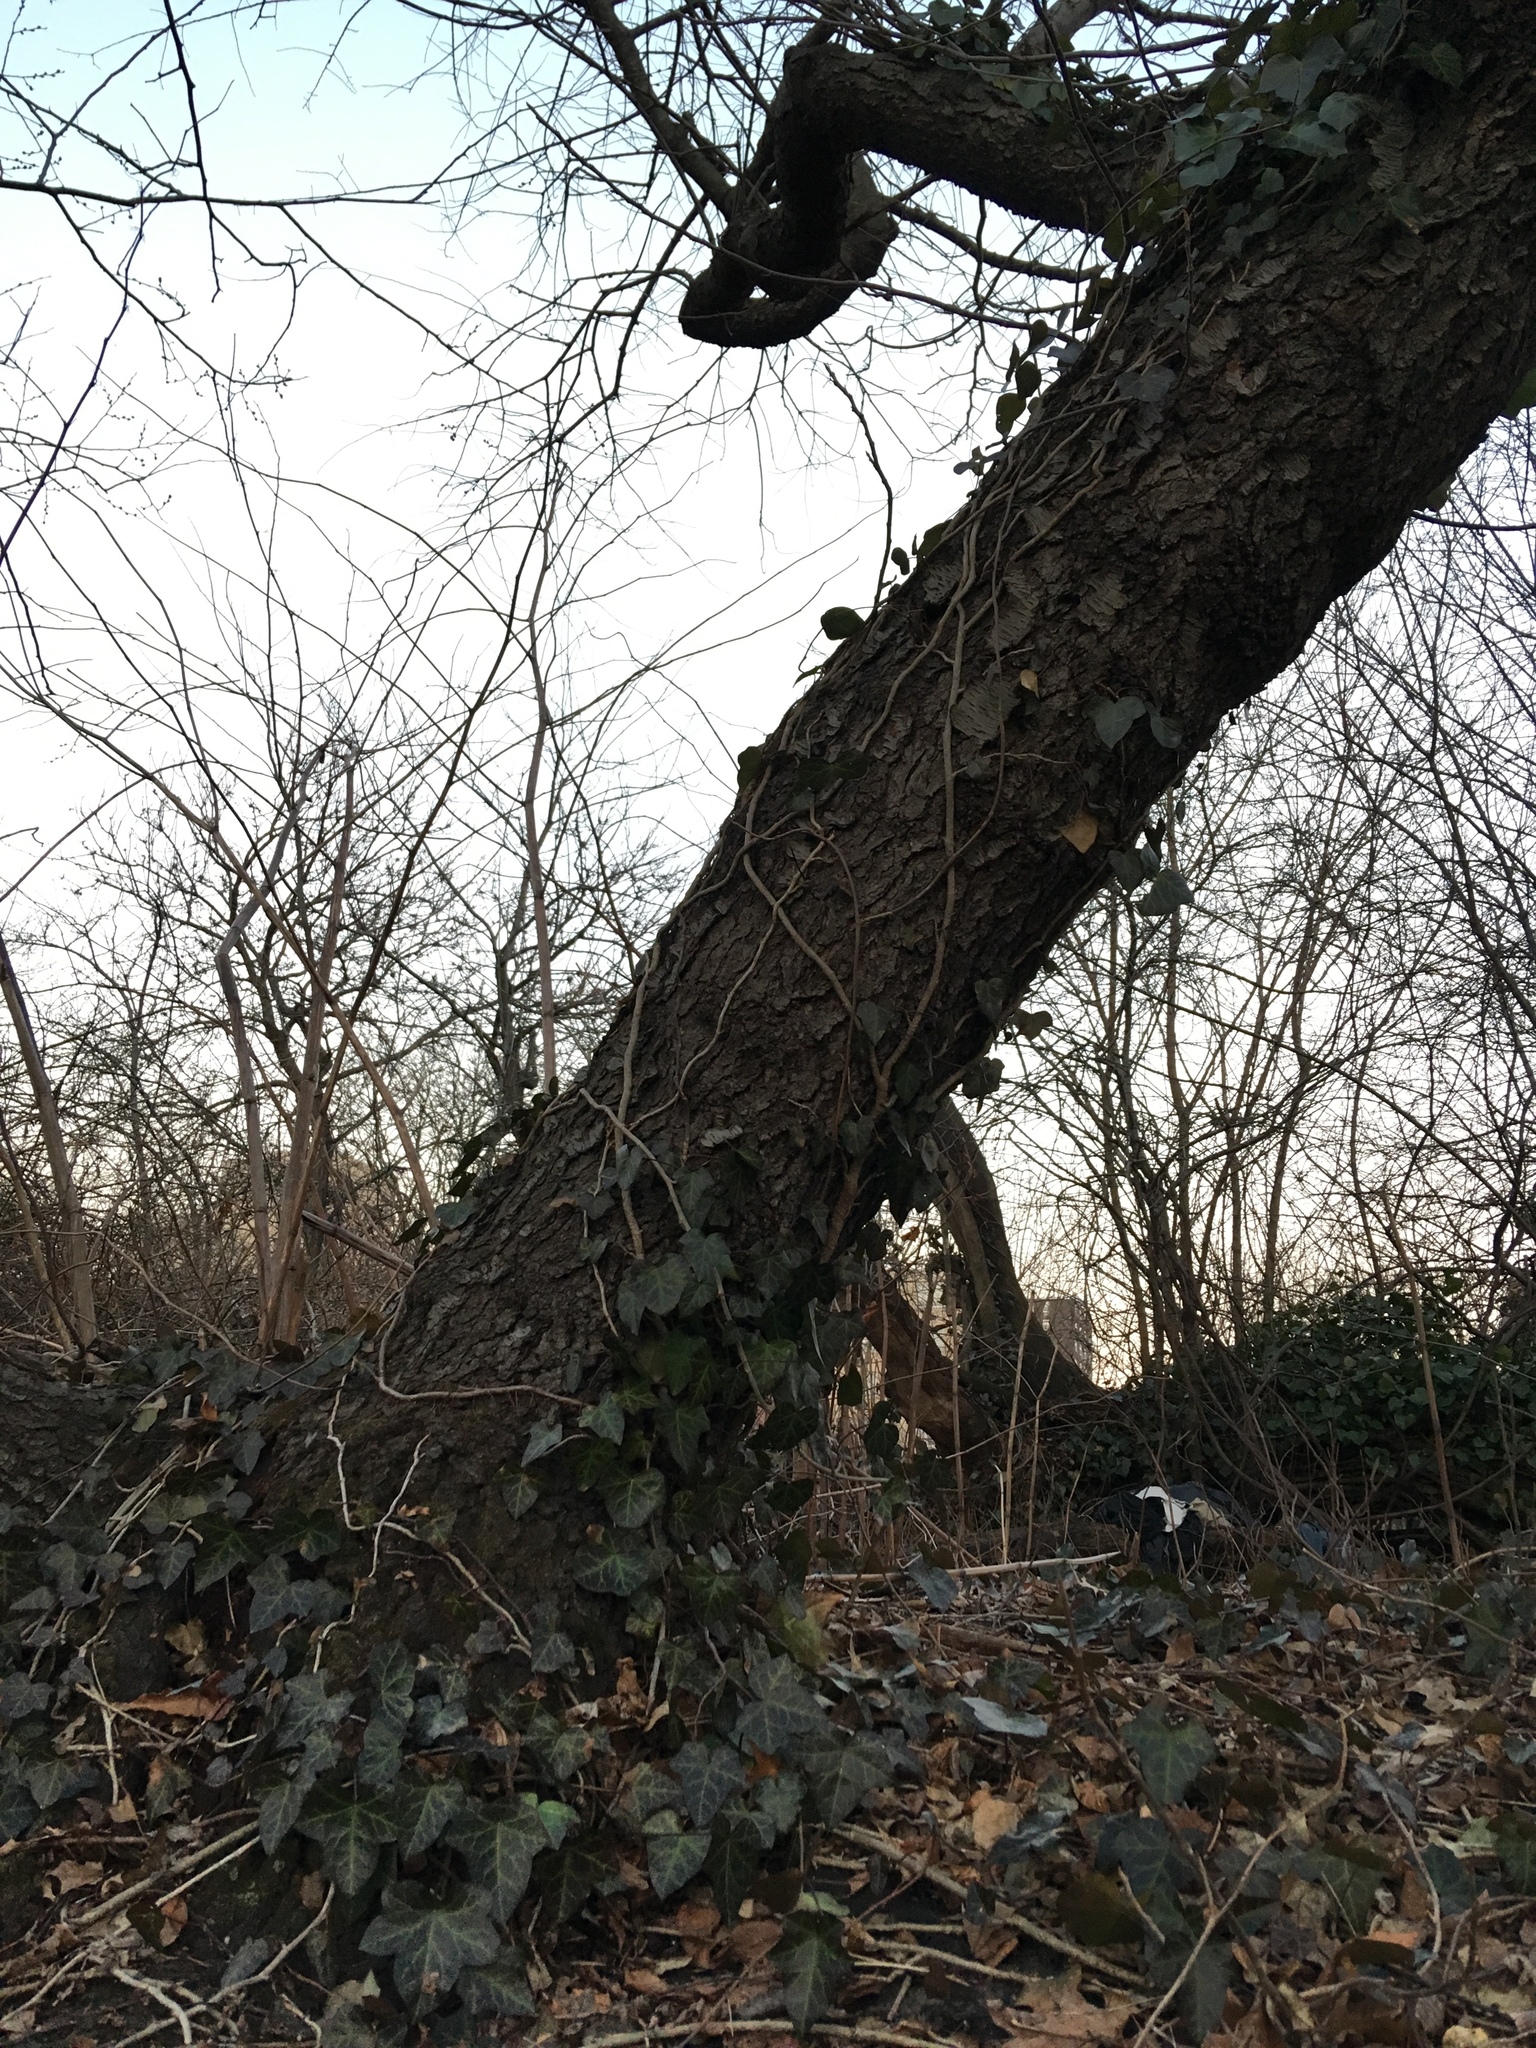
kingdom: Plantae
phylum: Tracheophyta
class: Magnoliopsida
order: Apiales
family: Araliaceae
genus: Hedera
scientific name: Hedera helix
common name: Ivy
